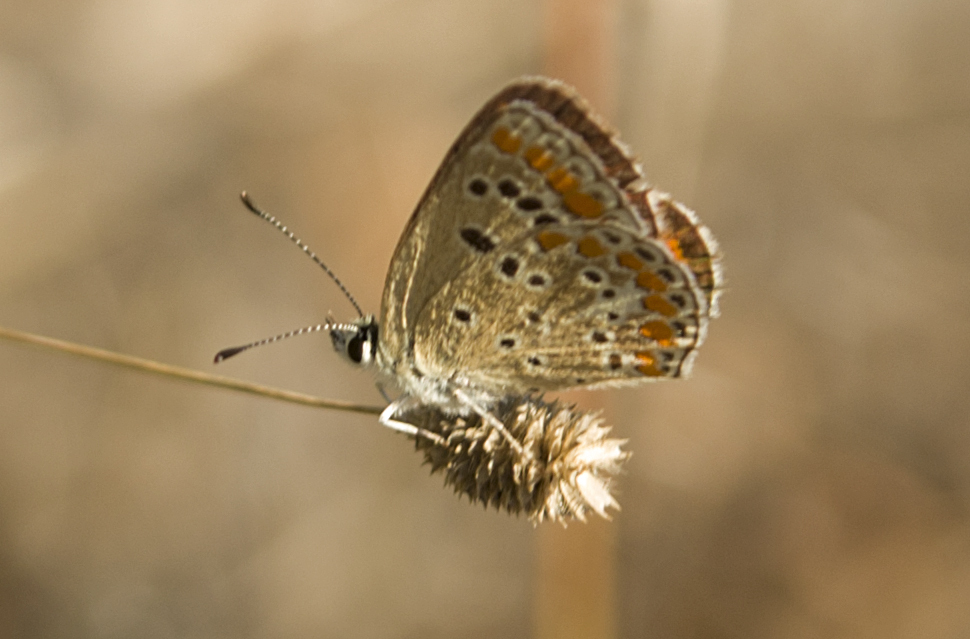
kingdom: Animalia
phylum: Arthropoda
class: Insecta
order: Lepidoptera
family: Lycaenidae
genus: Aricia
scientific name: Aricia agestis
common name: Brown argus
